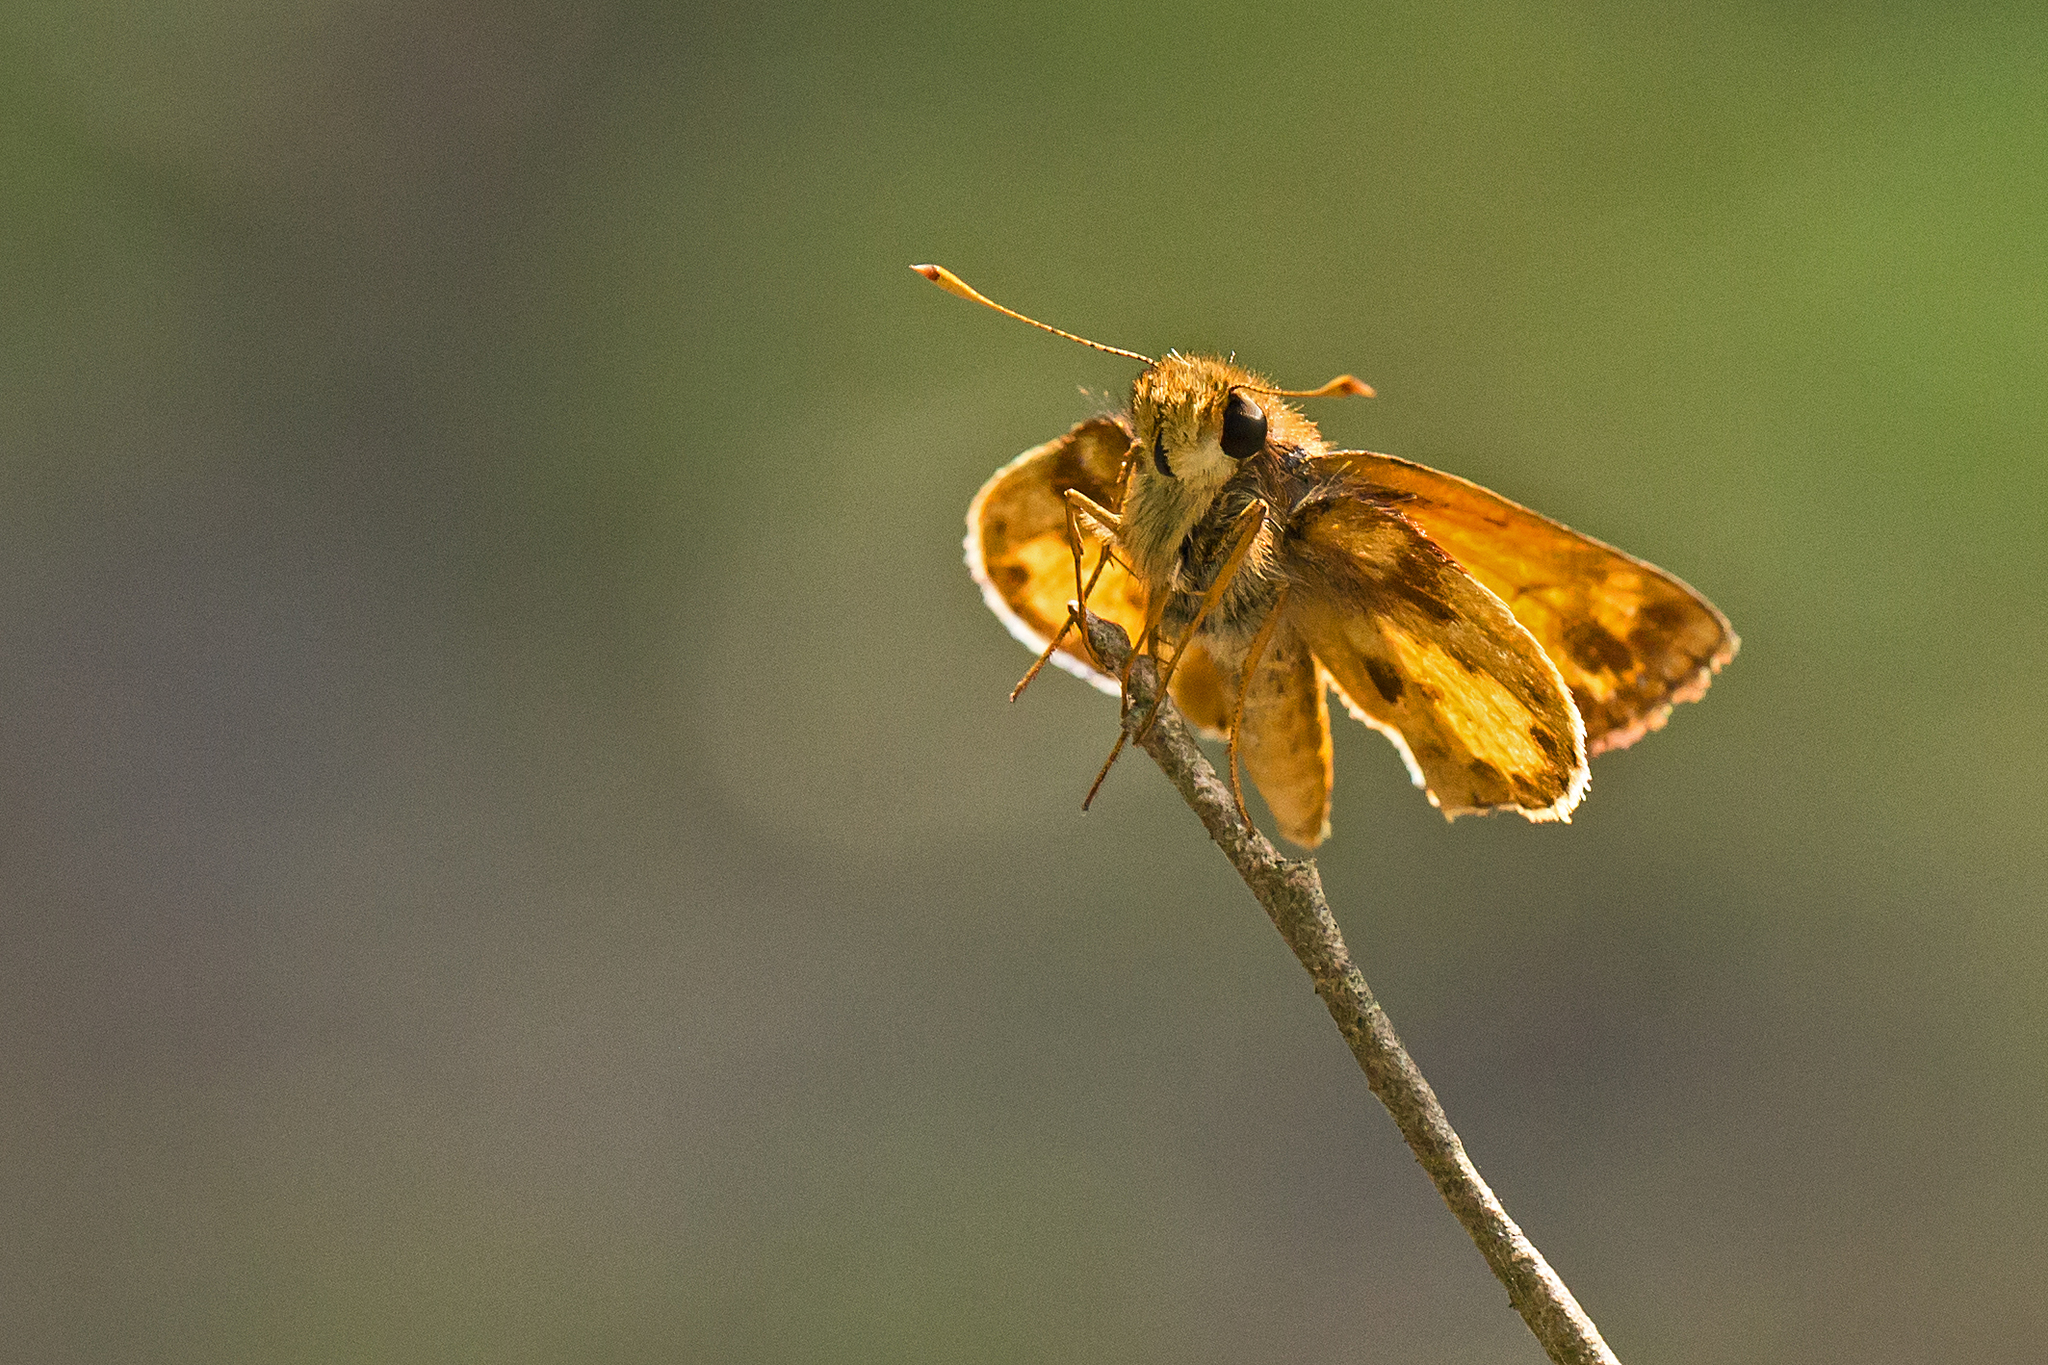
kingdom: Animalia
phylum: Arthropoda
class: Insecta
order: Lepidoptera
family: Hesperiidae
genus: Lon
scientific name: Lon zabulon
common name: Zabulon skipper
